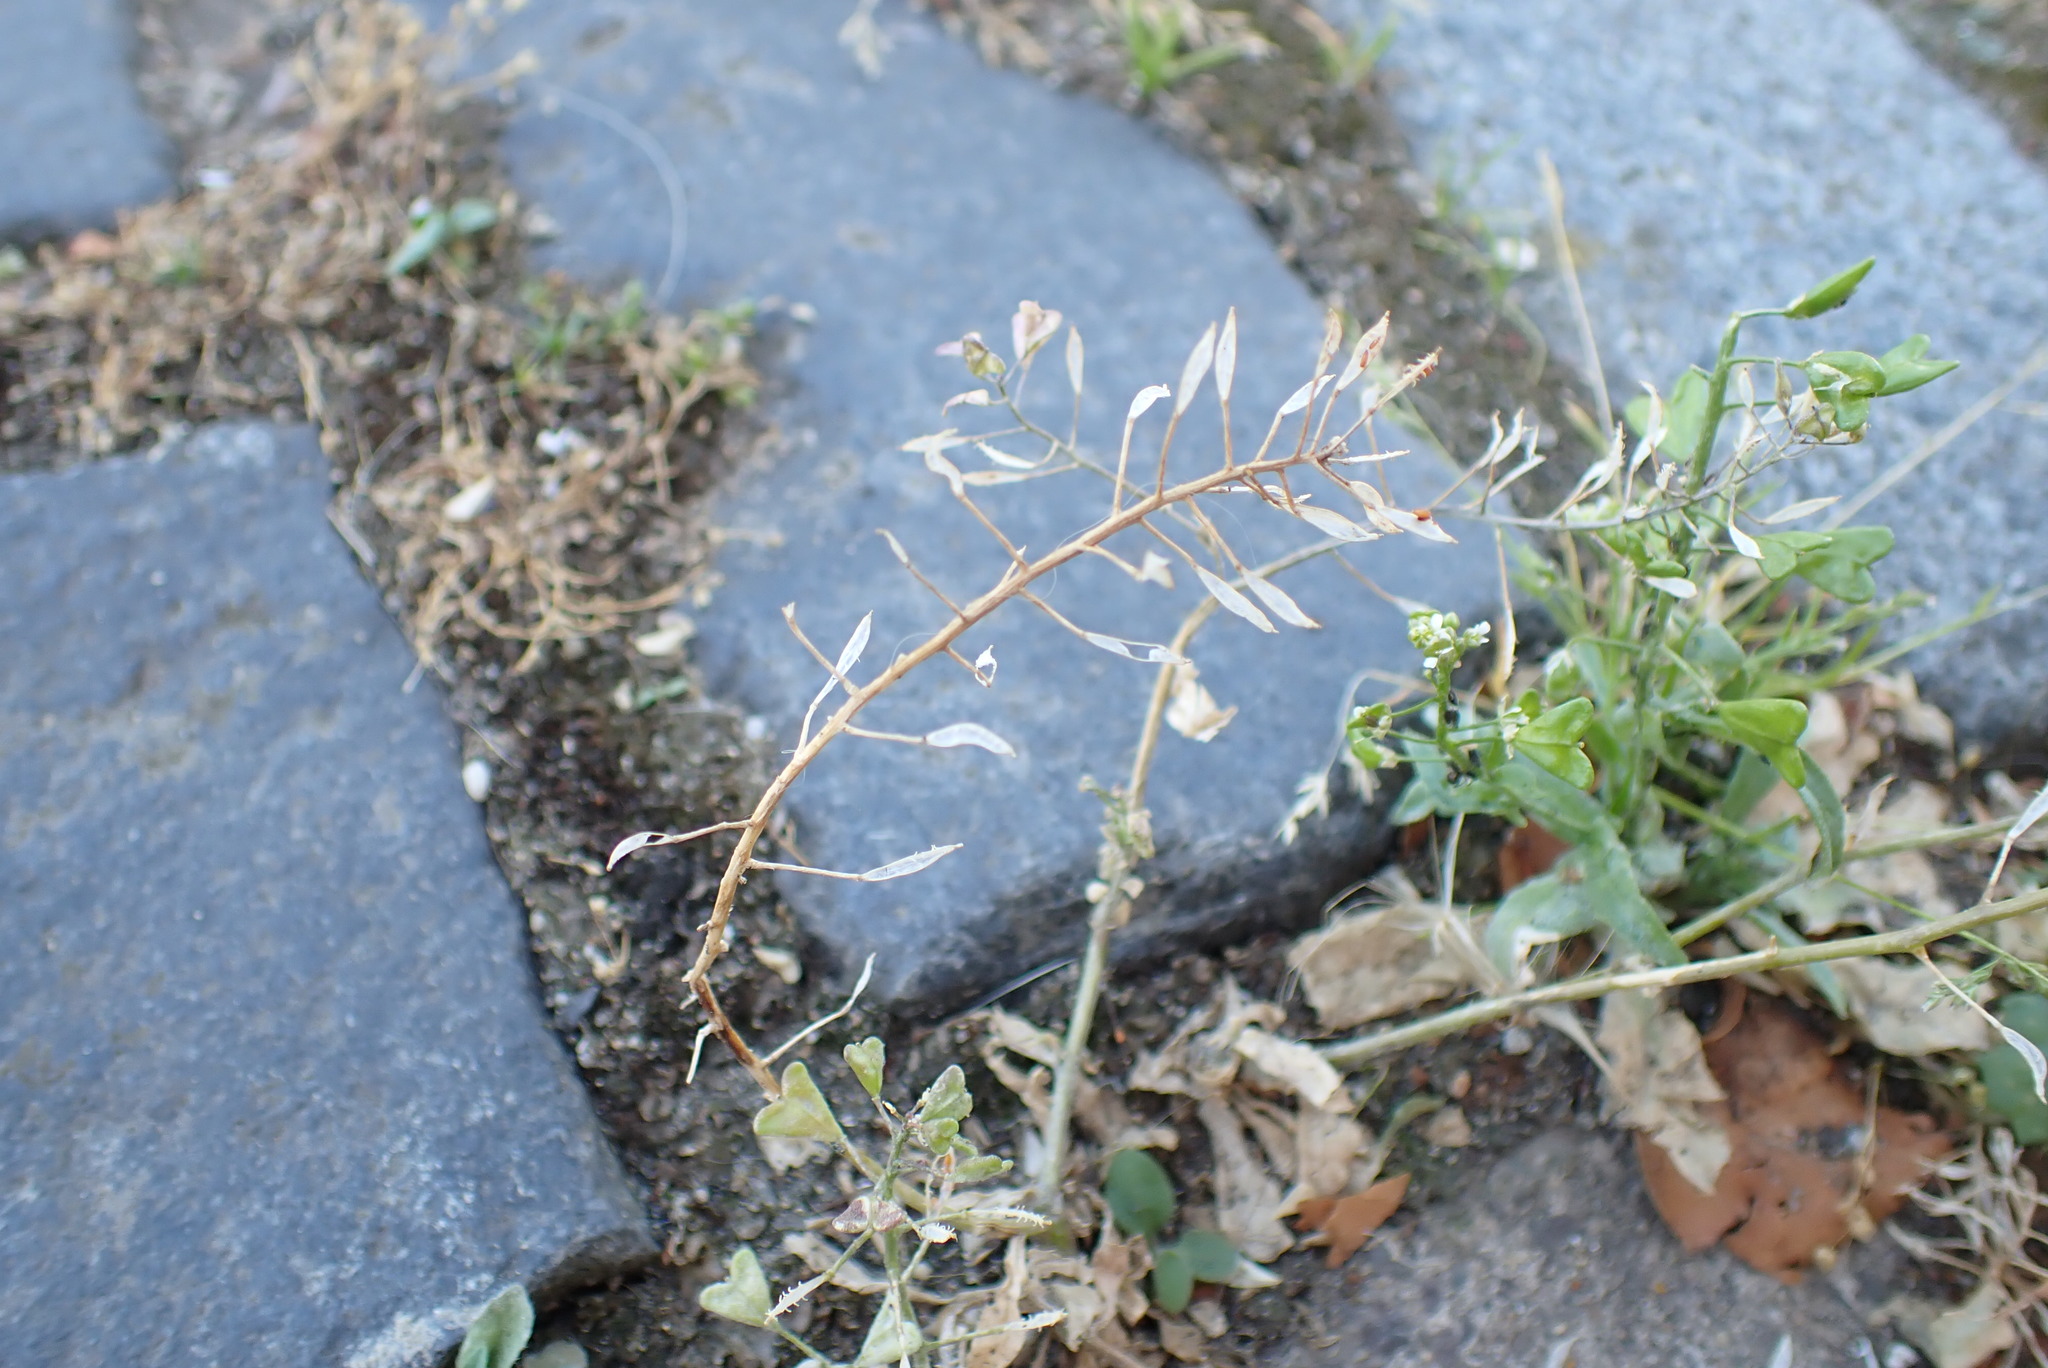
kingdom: Plantae
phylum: Tracheophyta
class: Magnoliopsida
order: Brassicales
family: Brassicaceae
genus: Capsella
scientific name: Capsella bursa-pastoris
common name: Shepherd's purse
